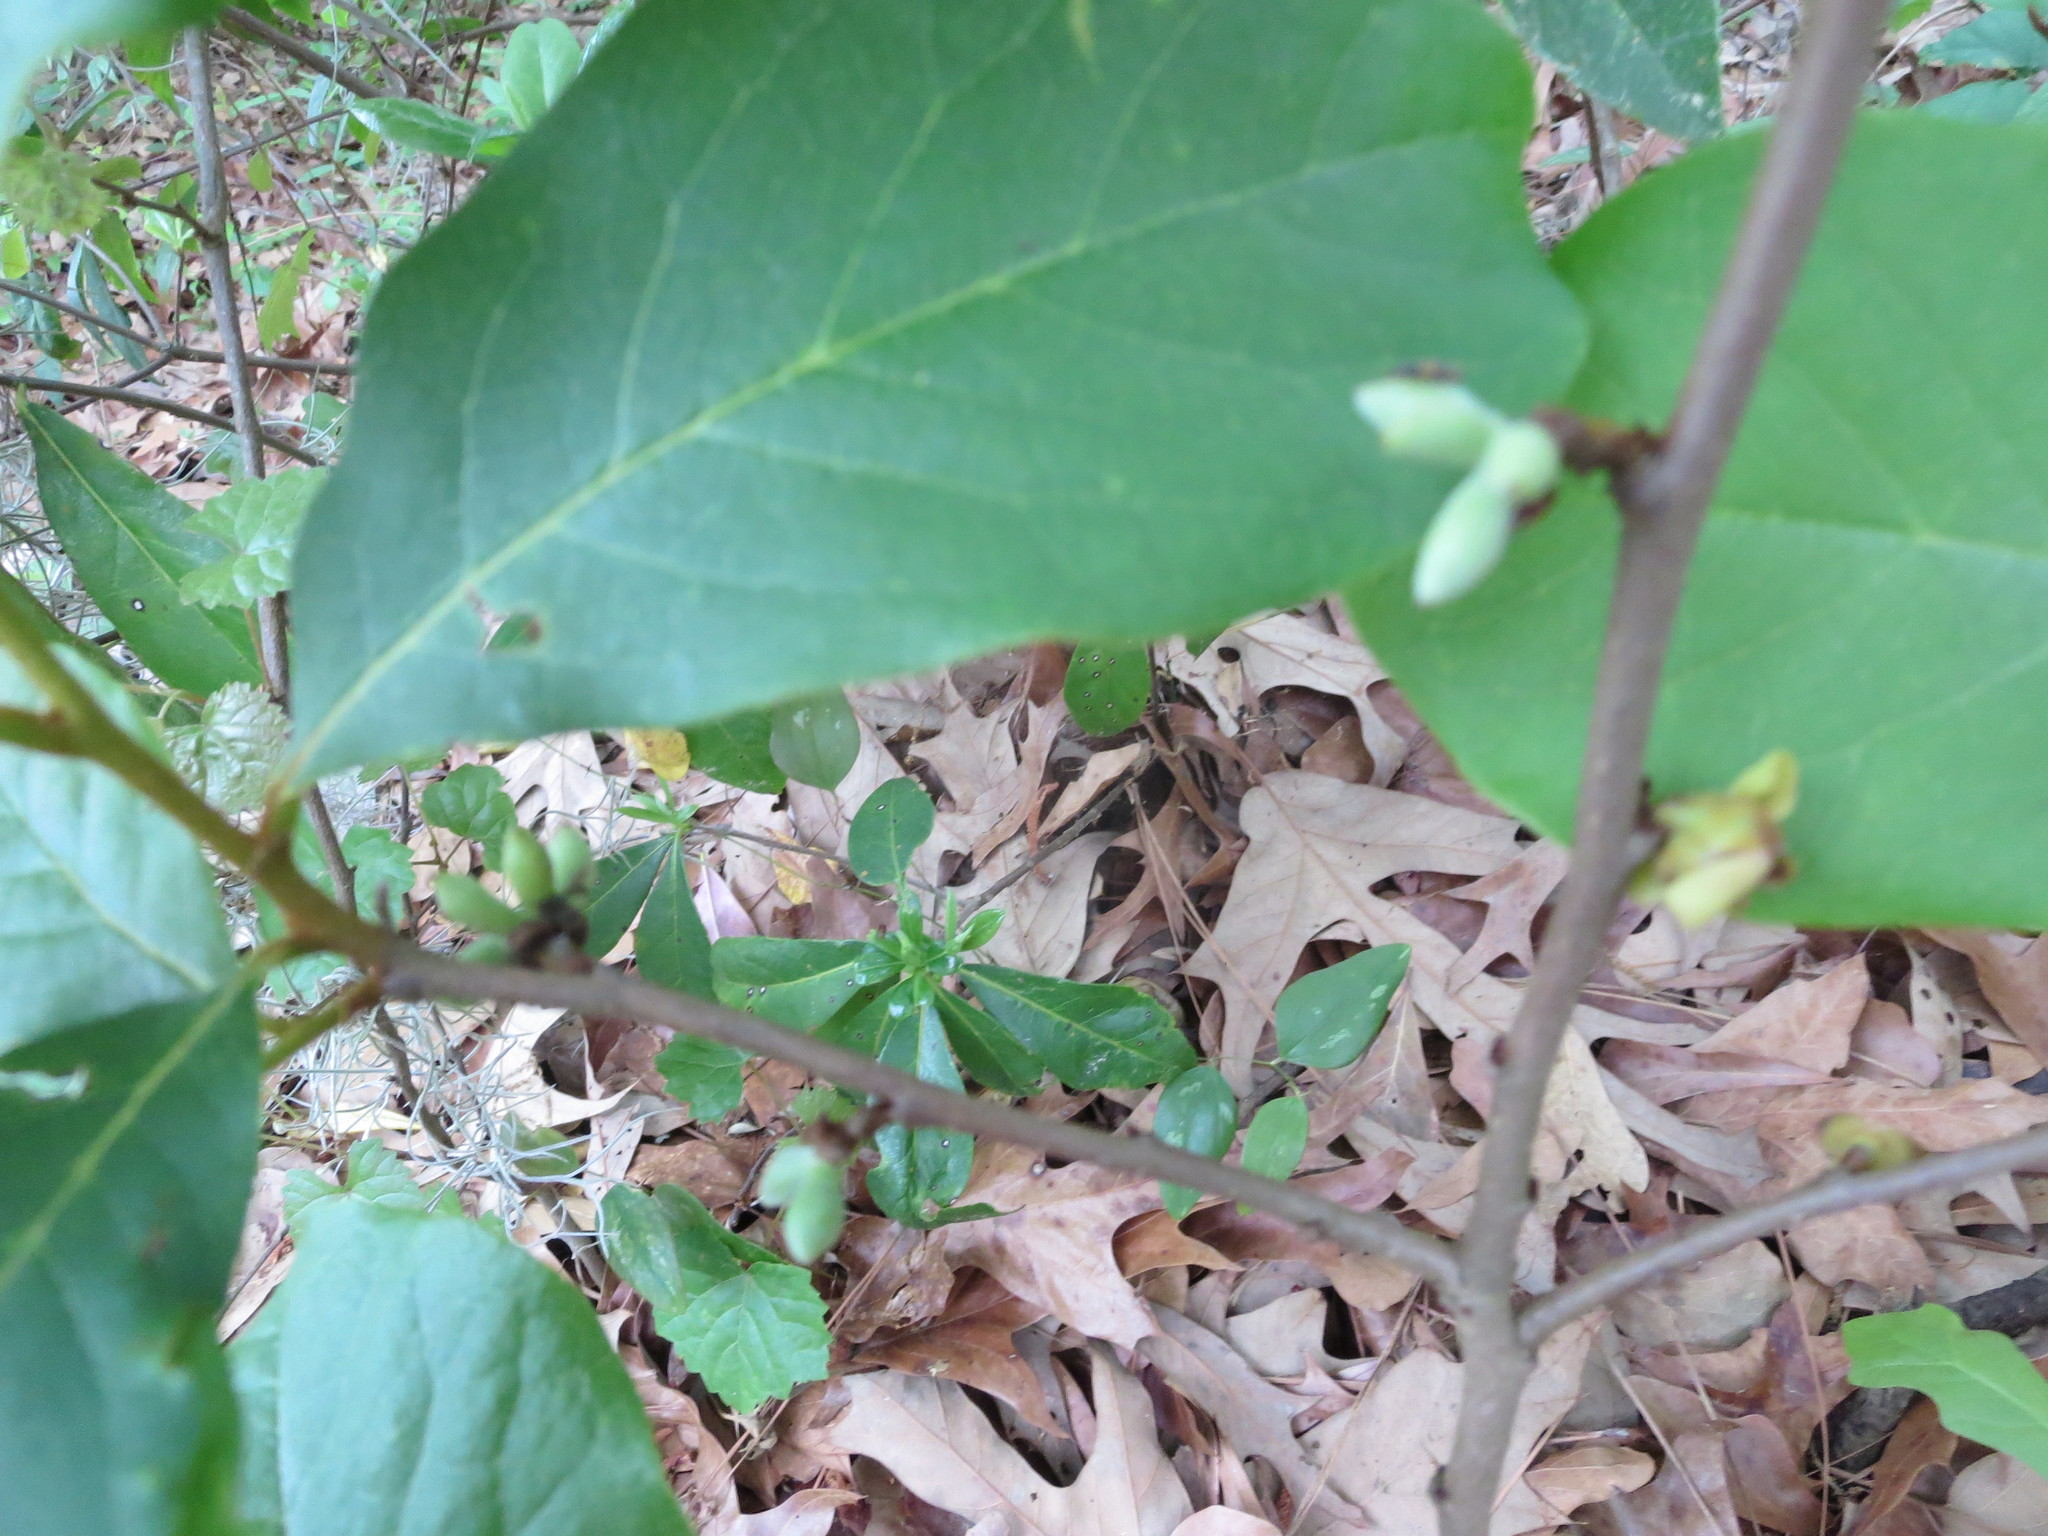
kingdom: Plantae
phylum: Tracheophyta
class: Magnoliopsida
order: Magnoliales
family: Annonaceae
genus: Asimina
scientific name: Asimina parviflora
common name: Dwarf pawpaw
